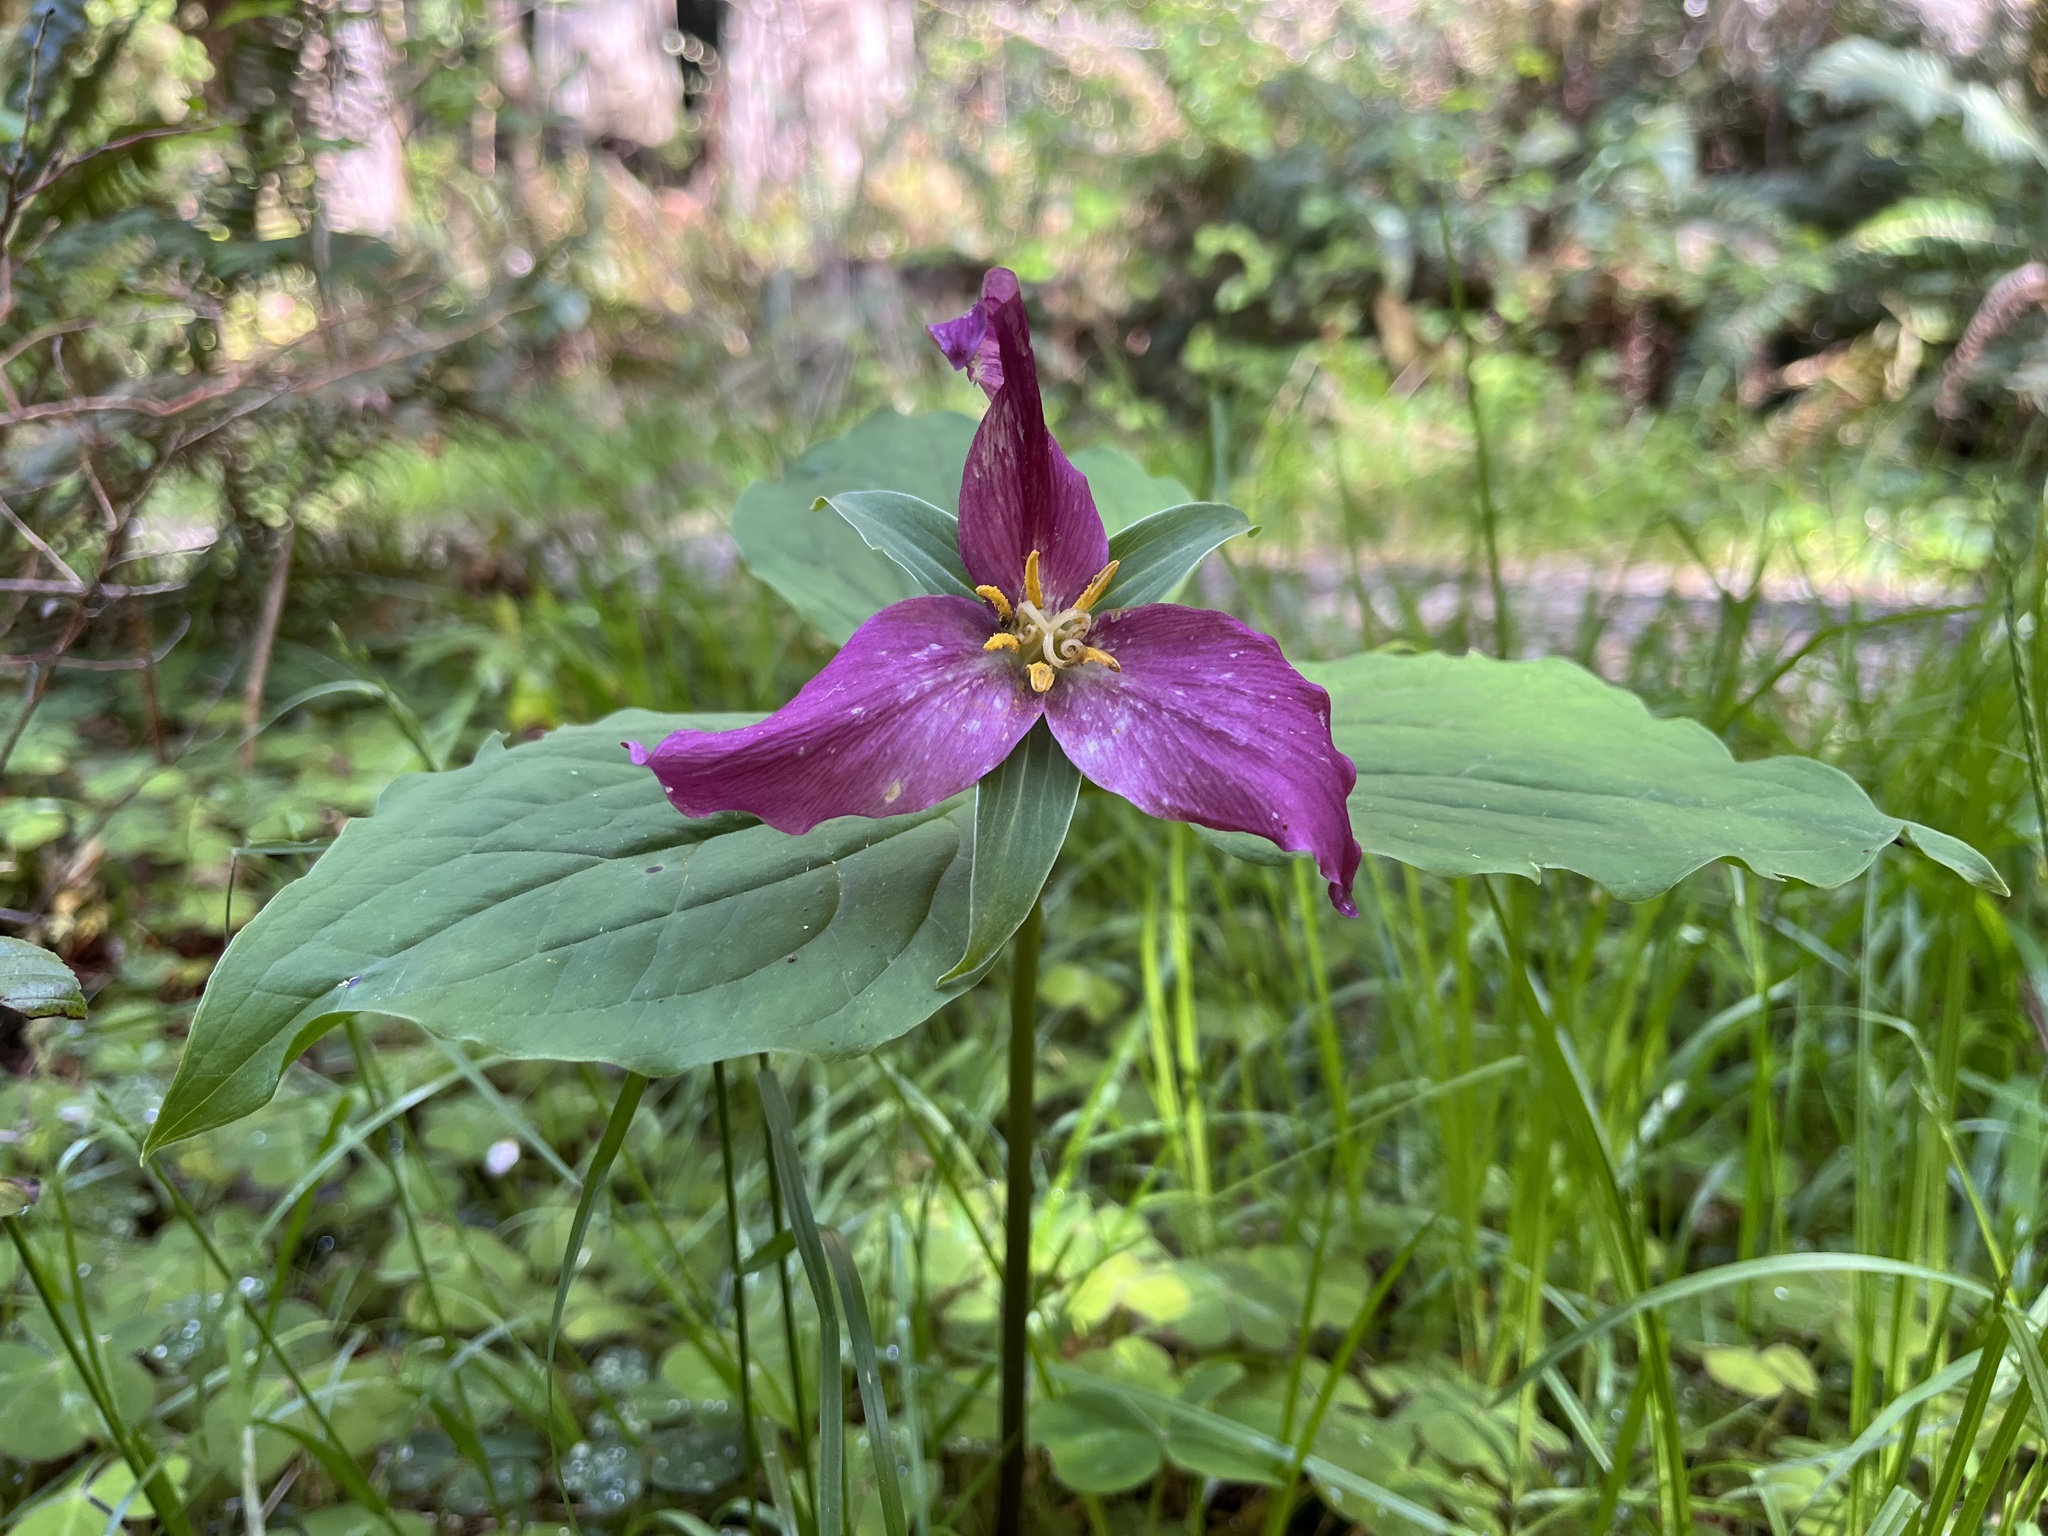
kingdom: Plantae
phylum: Tracheophyta
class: Liliopsida
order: Liliales
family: Melanthiaceae
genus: Trillium
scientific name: Trillium ovatum
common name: Pacific trillium
